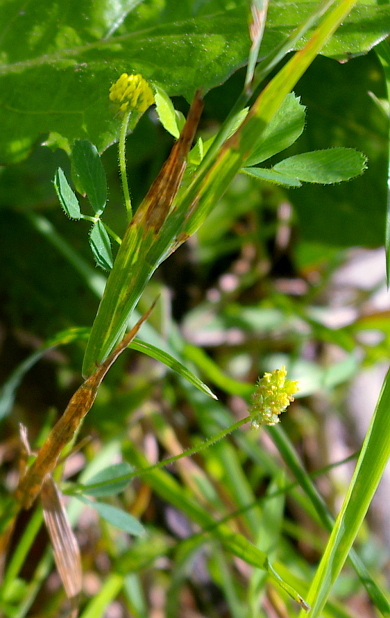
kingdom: Plantae
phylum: Tracheophyta
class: Magnoliopsida
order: Fabales
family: Fabaceae
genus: Medicago
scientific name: Medicago lupulina
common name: Black medick
